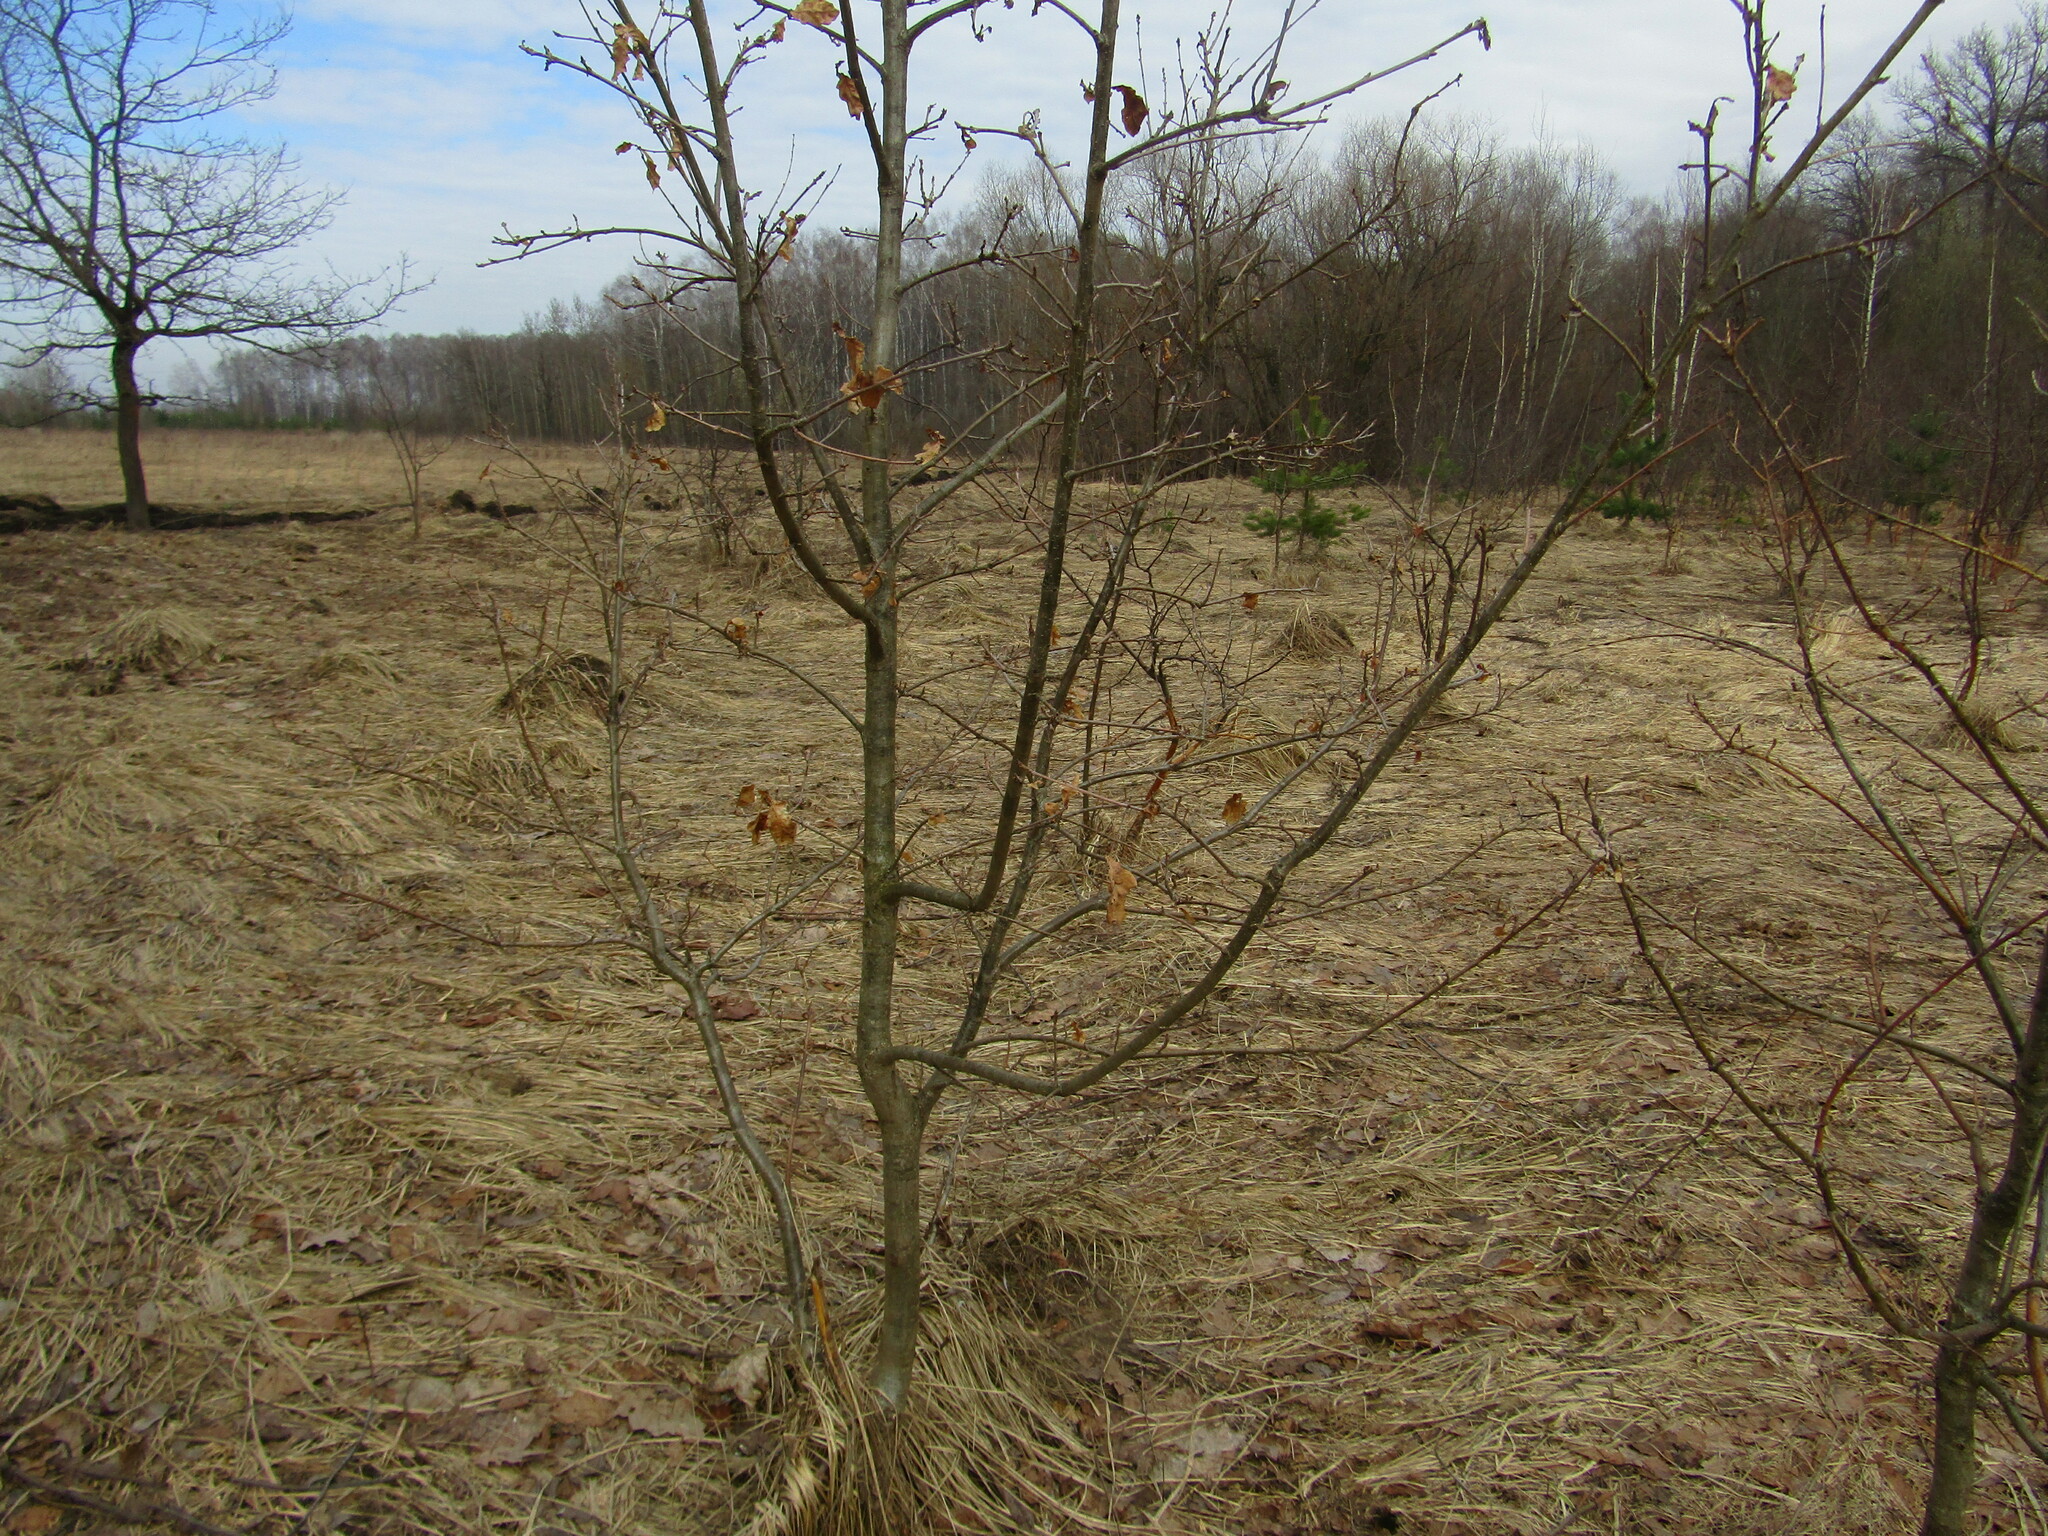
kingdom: Plantae
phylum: Tracheophyta
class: Magnoliopsida
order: Fagales
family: Fagaceae
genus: Quercus
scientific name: Quercus robur
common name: Pedunculate oak
